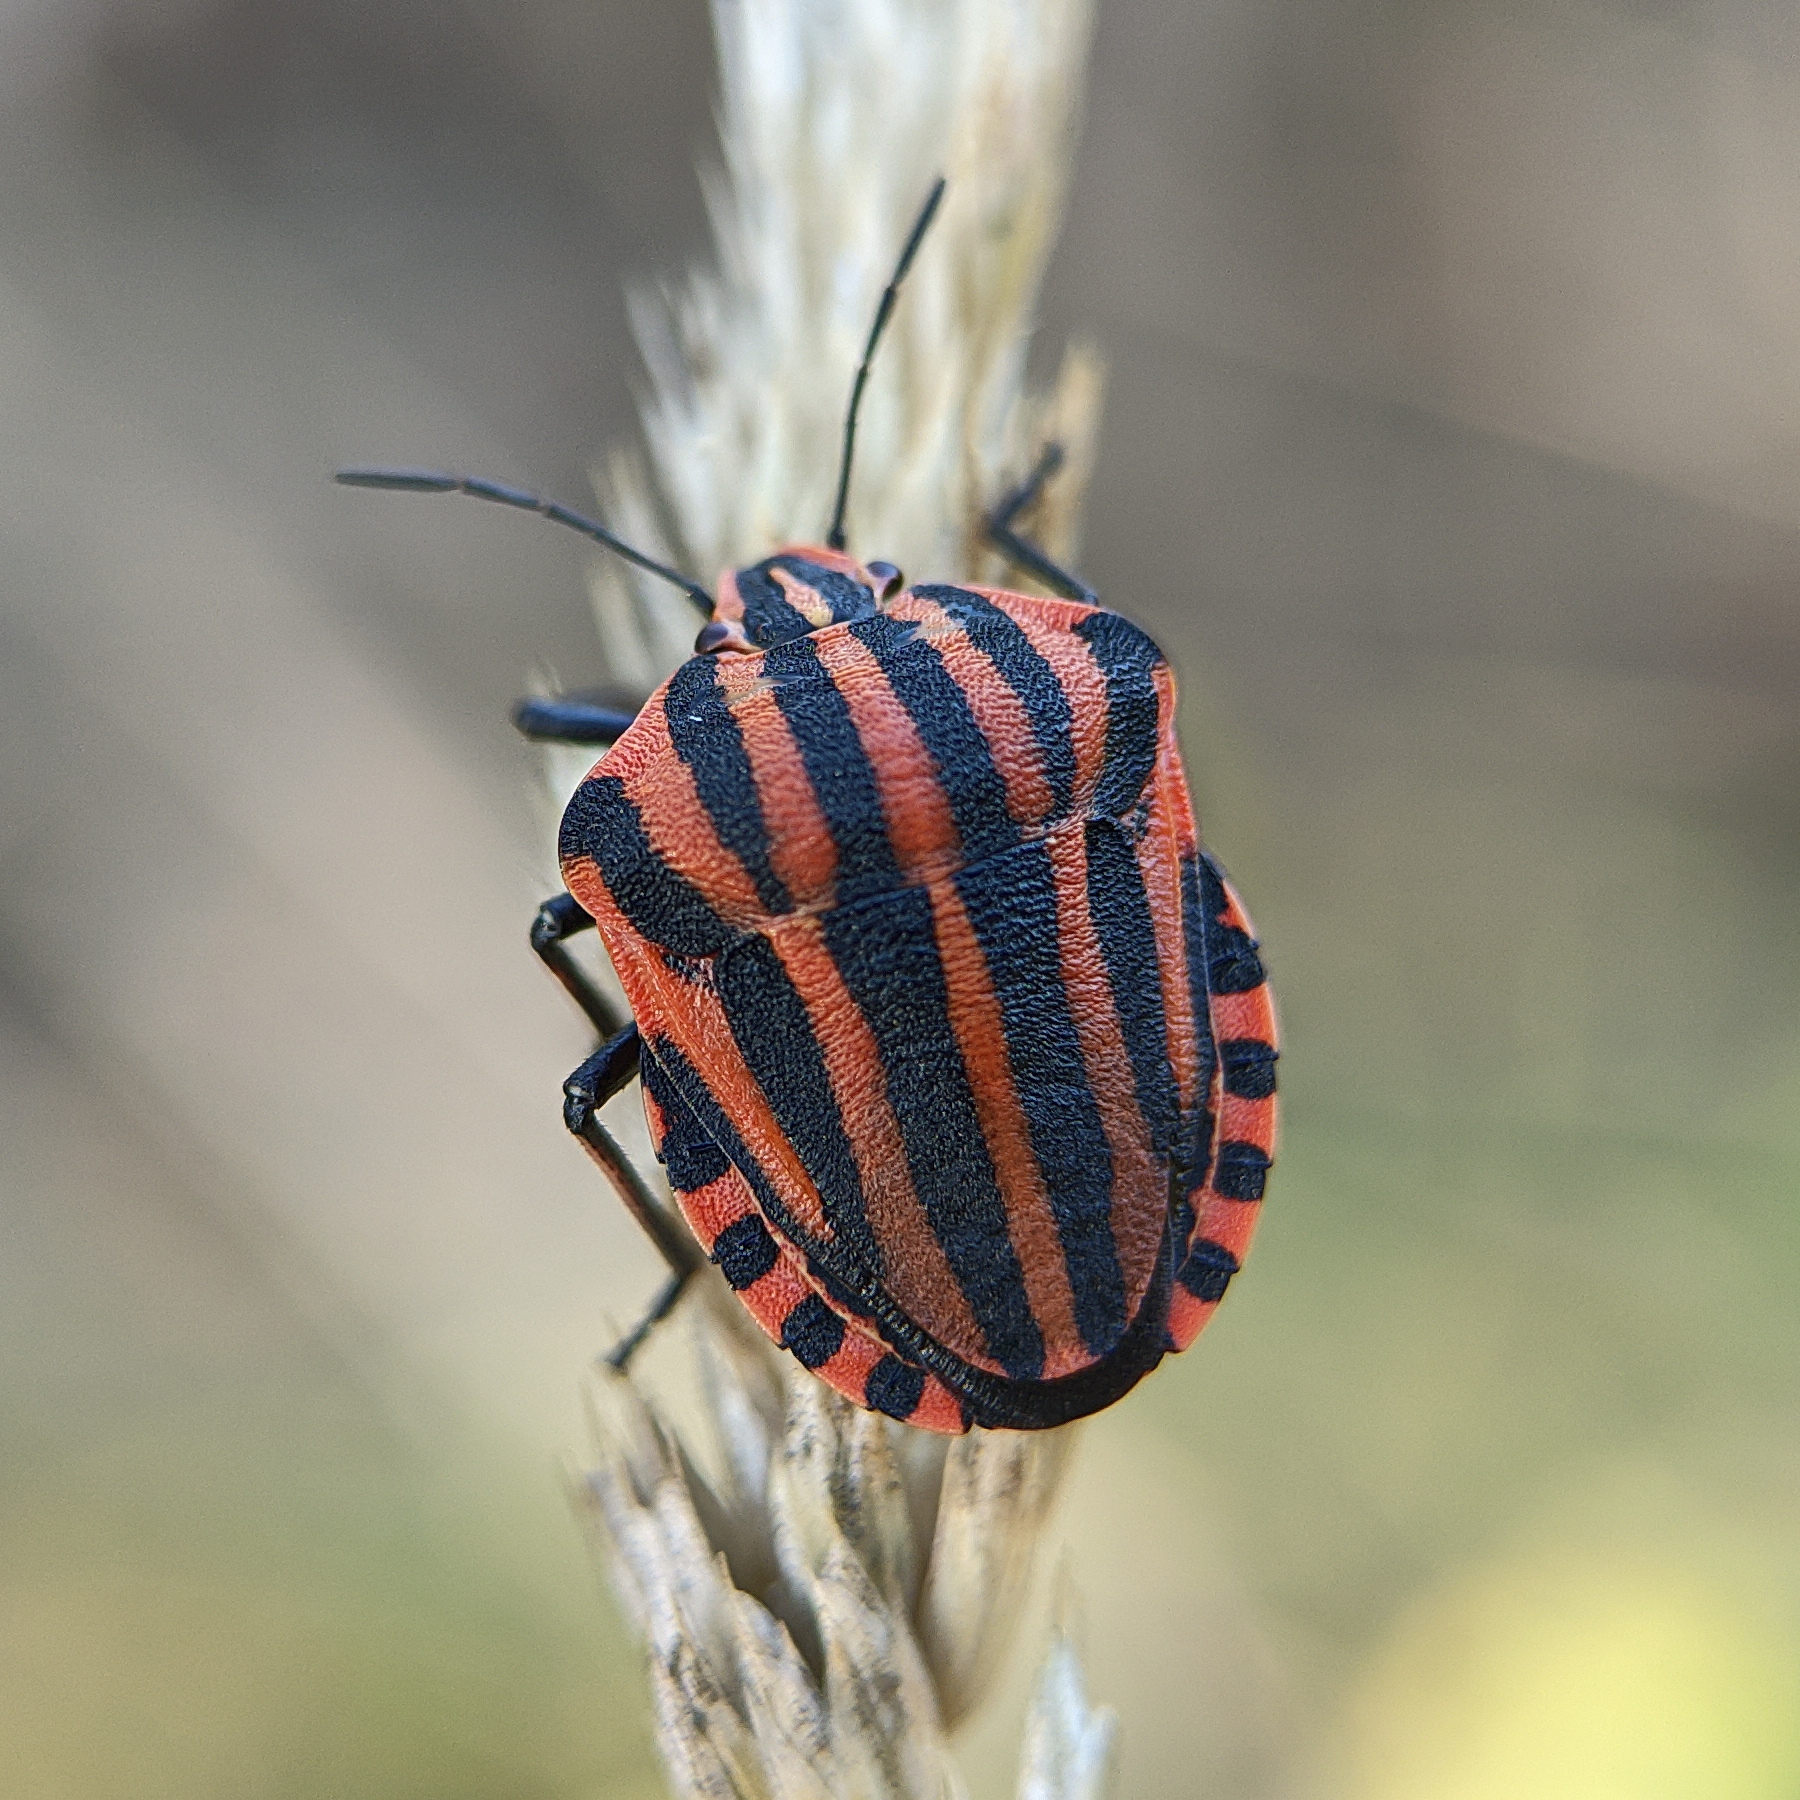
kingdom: Animalia
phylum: Arthropoda
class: Insecta
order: Hemiptera
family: Pentatomidae
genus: Graphosoma
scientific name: Graphosoma italicum
